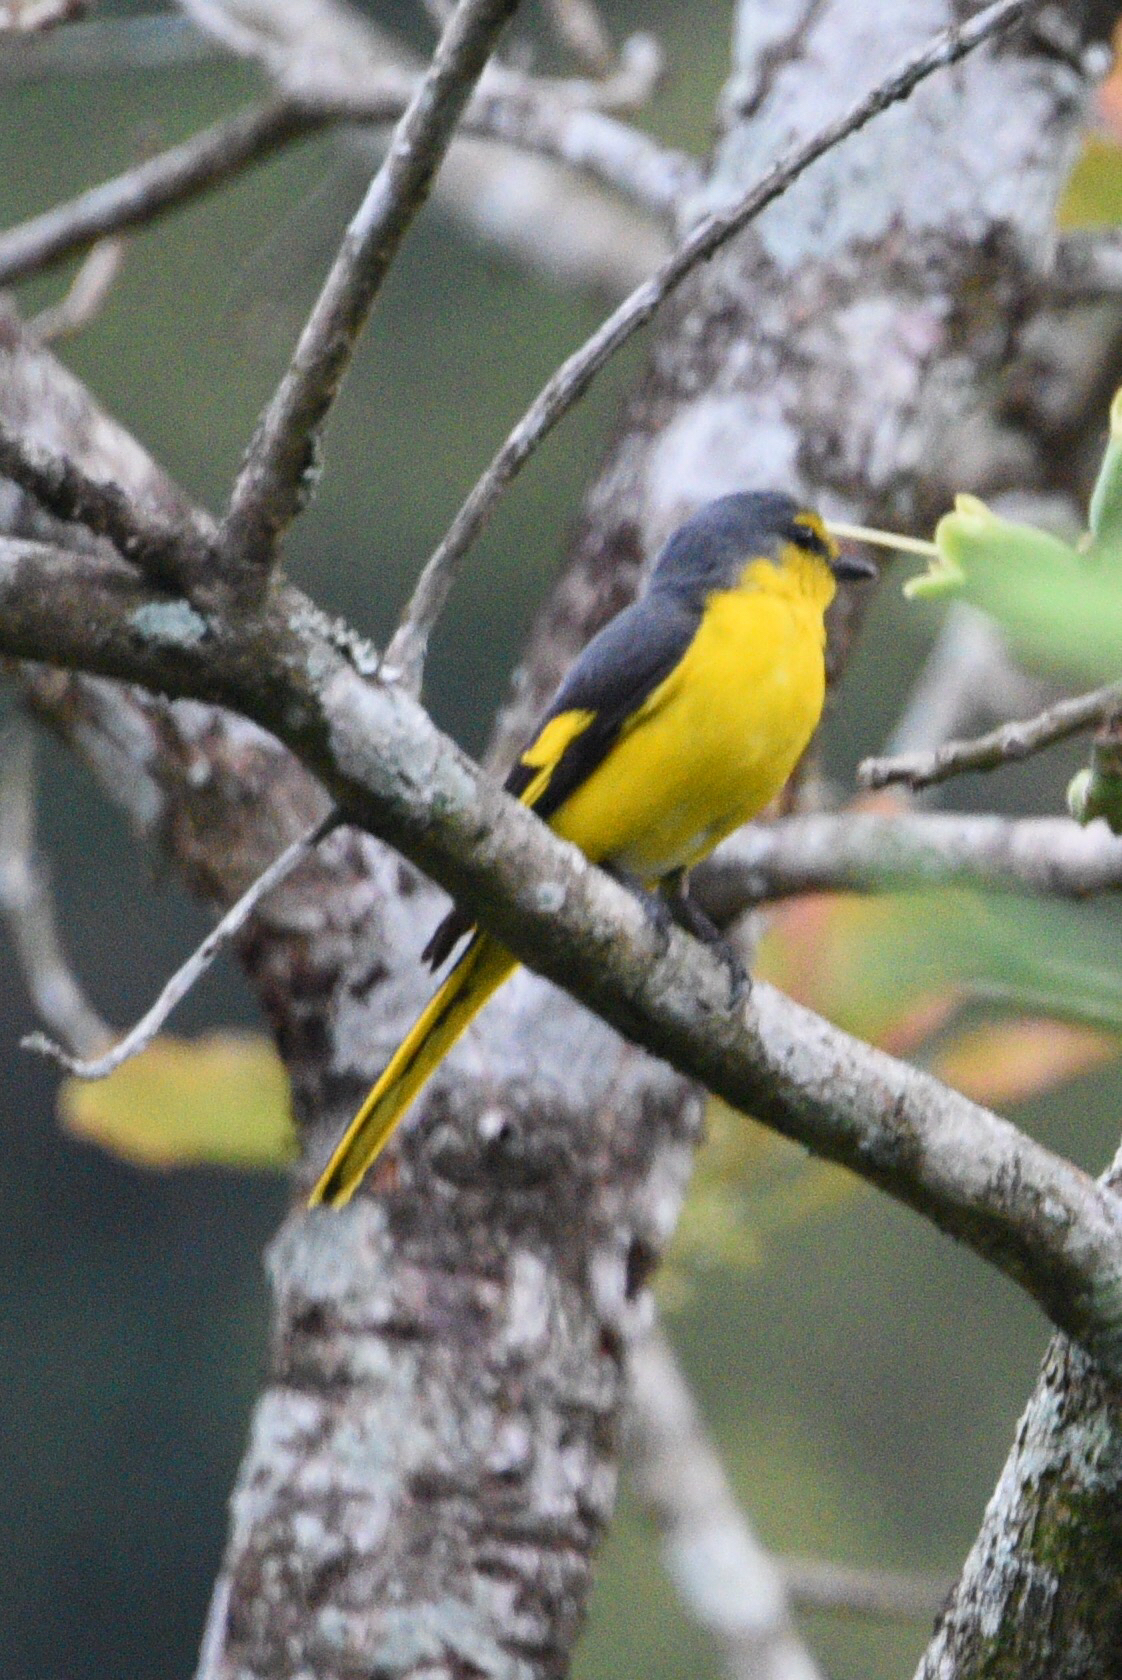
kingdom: Animalia
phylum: Chordata
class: Aves
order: Passeriformes
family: Campephagidae
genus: Pericrocotus
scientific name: Pericrocotus flammeus
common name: Orange minivet
